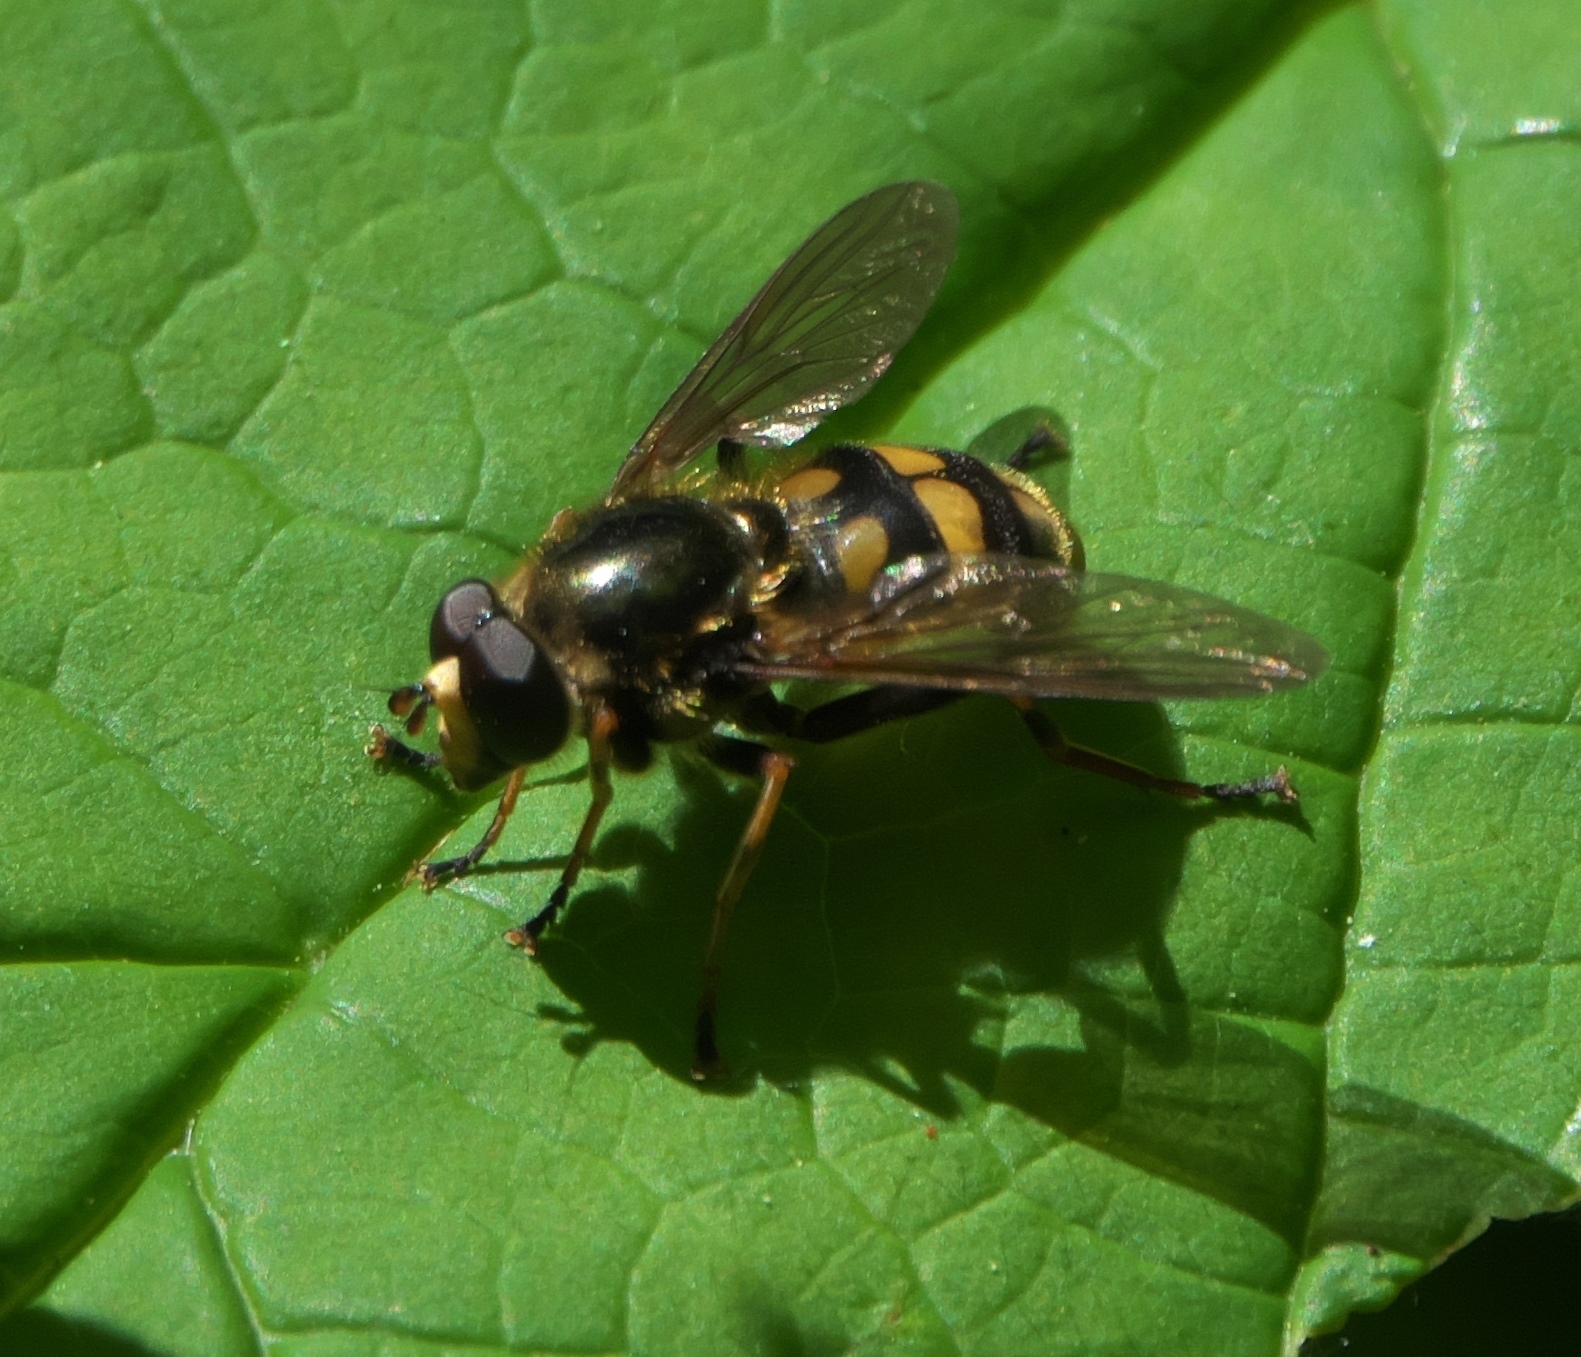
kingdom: Animalia
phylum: Arthropoda
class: Insecta
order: Diptera
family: Syrphidae
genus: Blera
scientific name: Blera scitula
